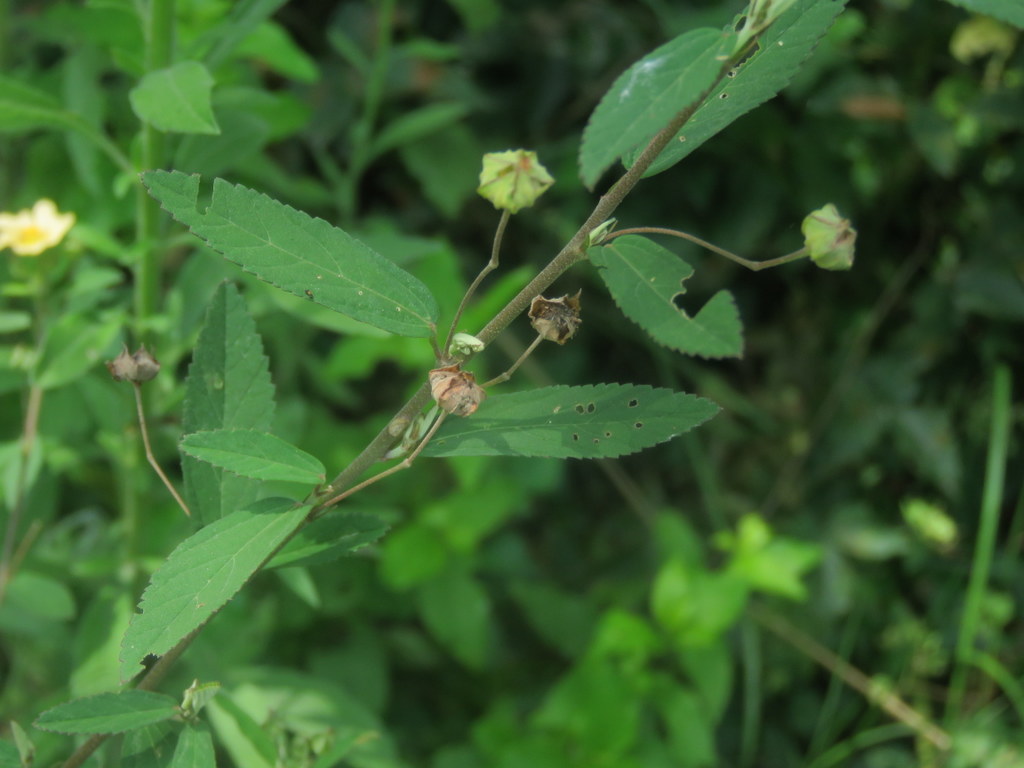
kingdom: Plantae
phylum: Tracheophyta
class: Magnoliopsida
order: Malvales
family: Malvaceae
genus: Sida
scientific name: Sida rhombifolia
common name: Queensland-hemp
